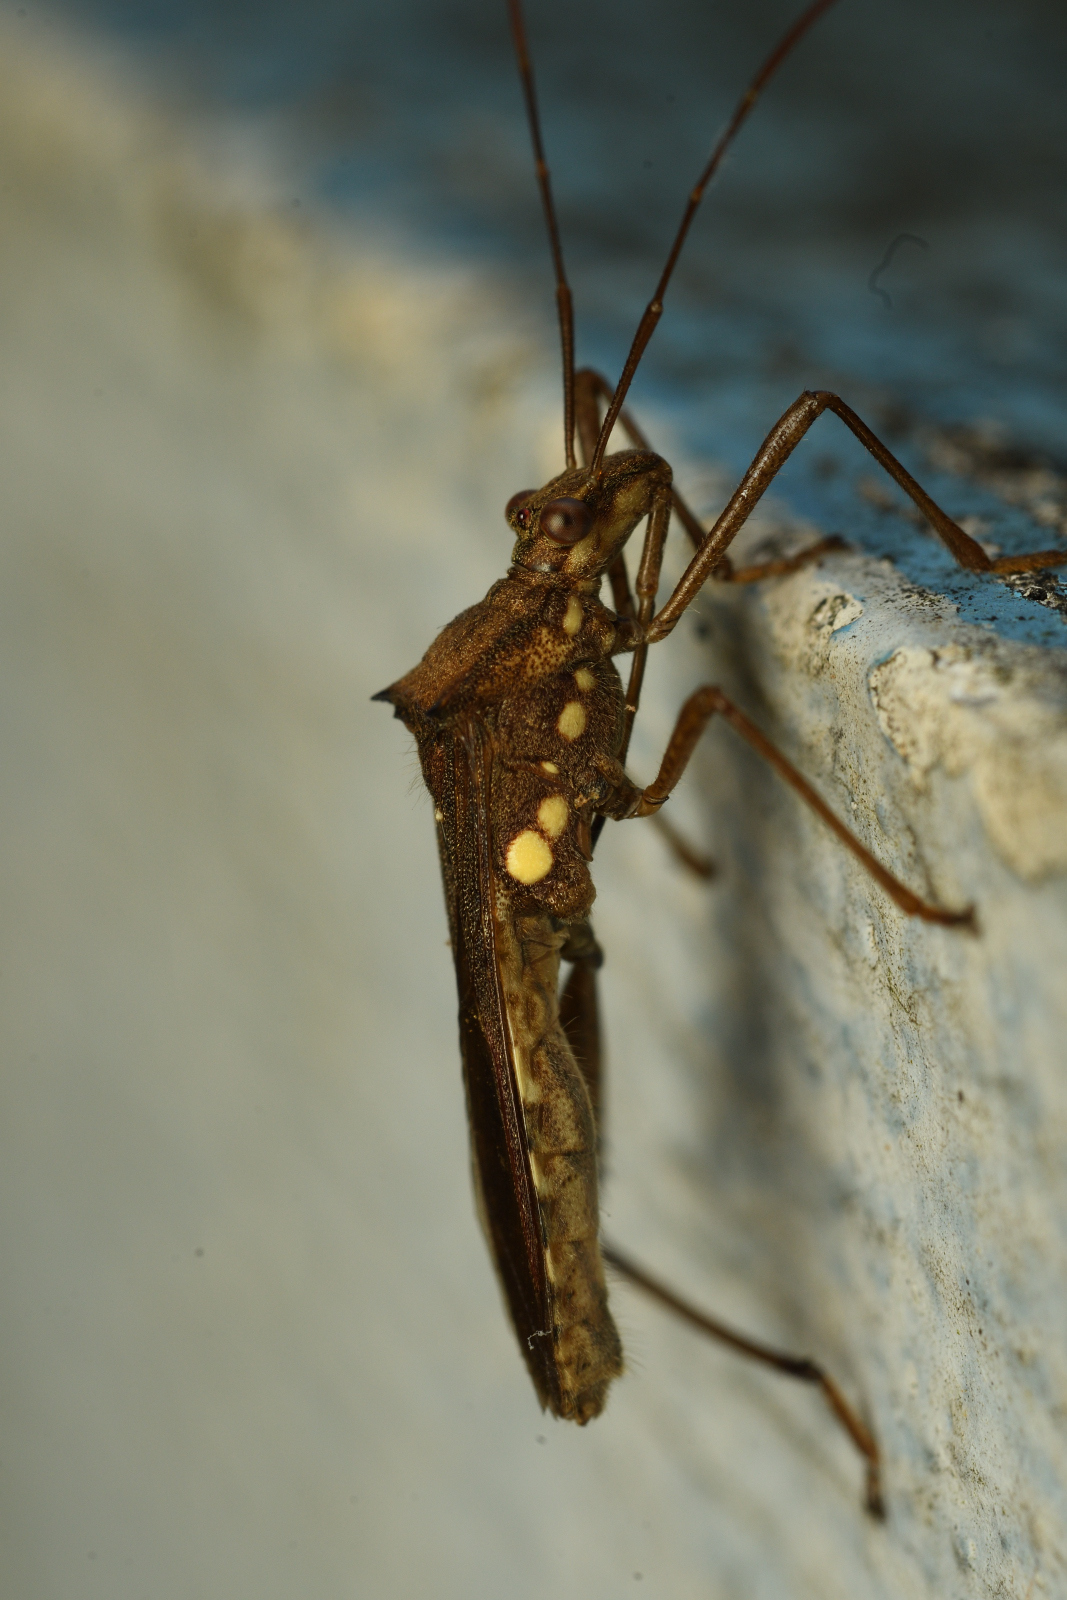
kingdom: Animalia
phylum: Arthropoda
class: Insecta
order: Hemiptera
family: Alydidae
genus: Riptortus
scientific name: Riptortus pedestris
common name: Bean bug
